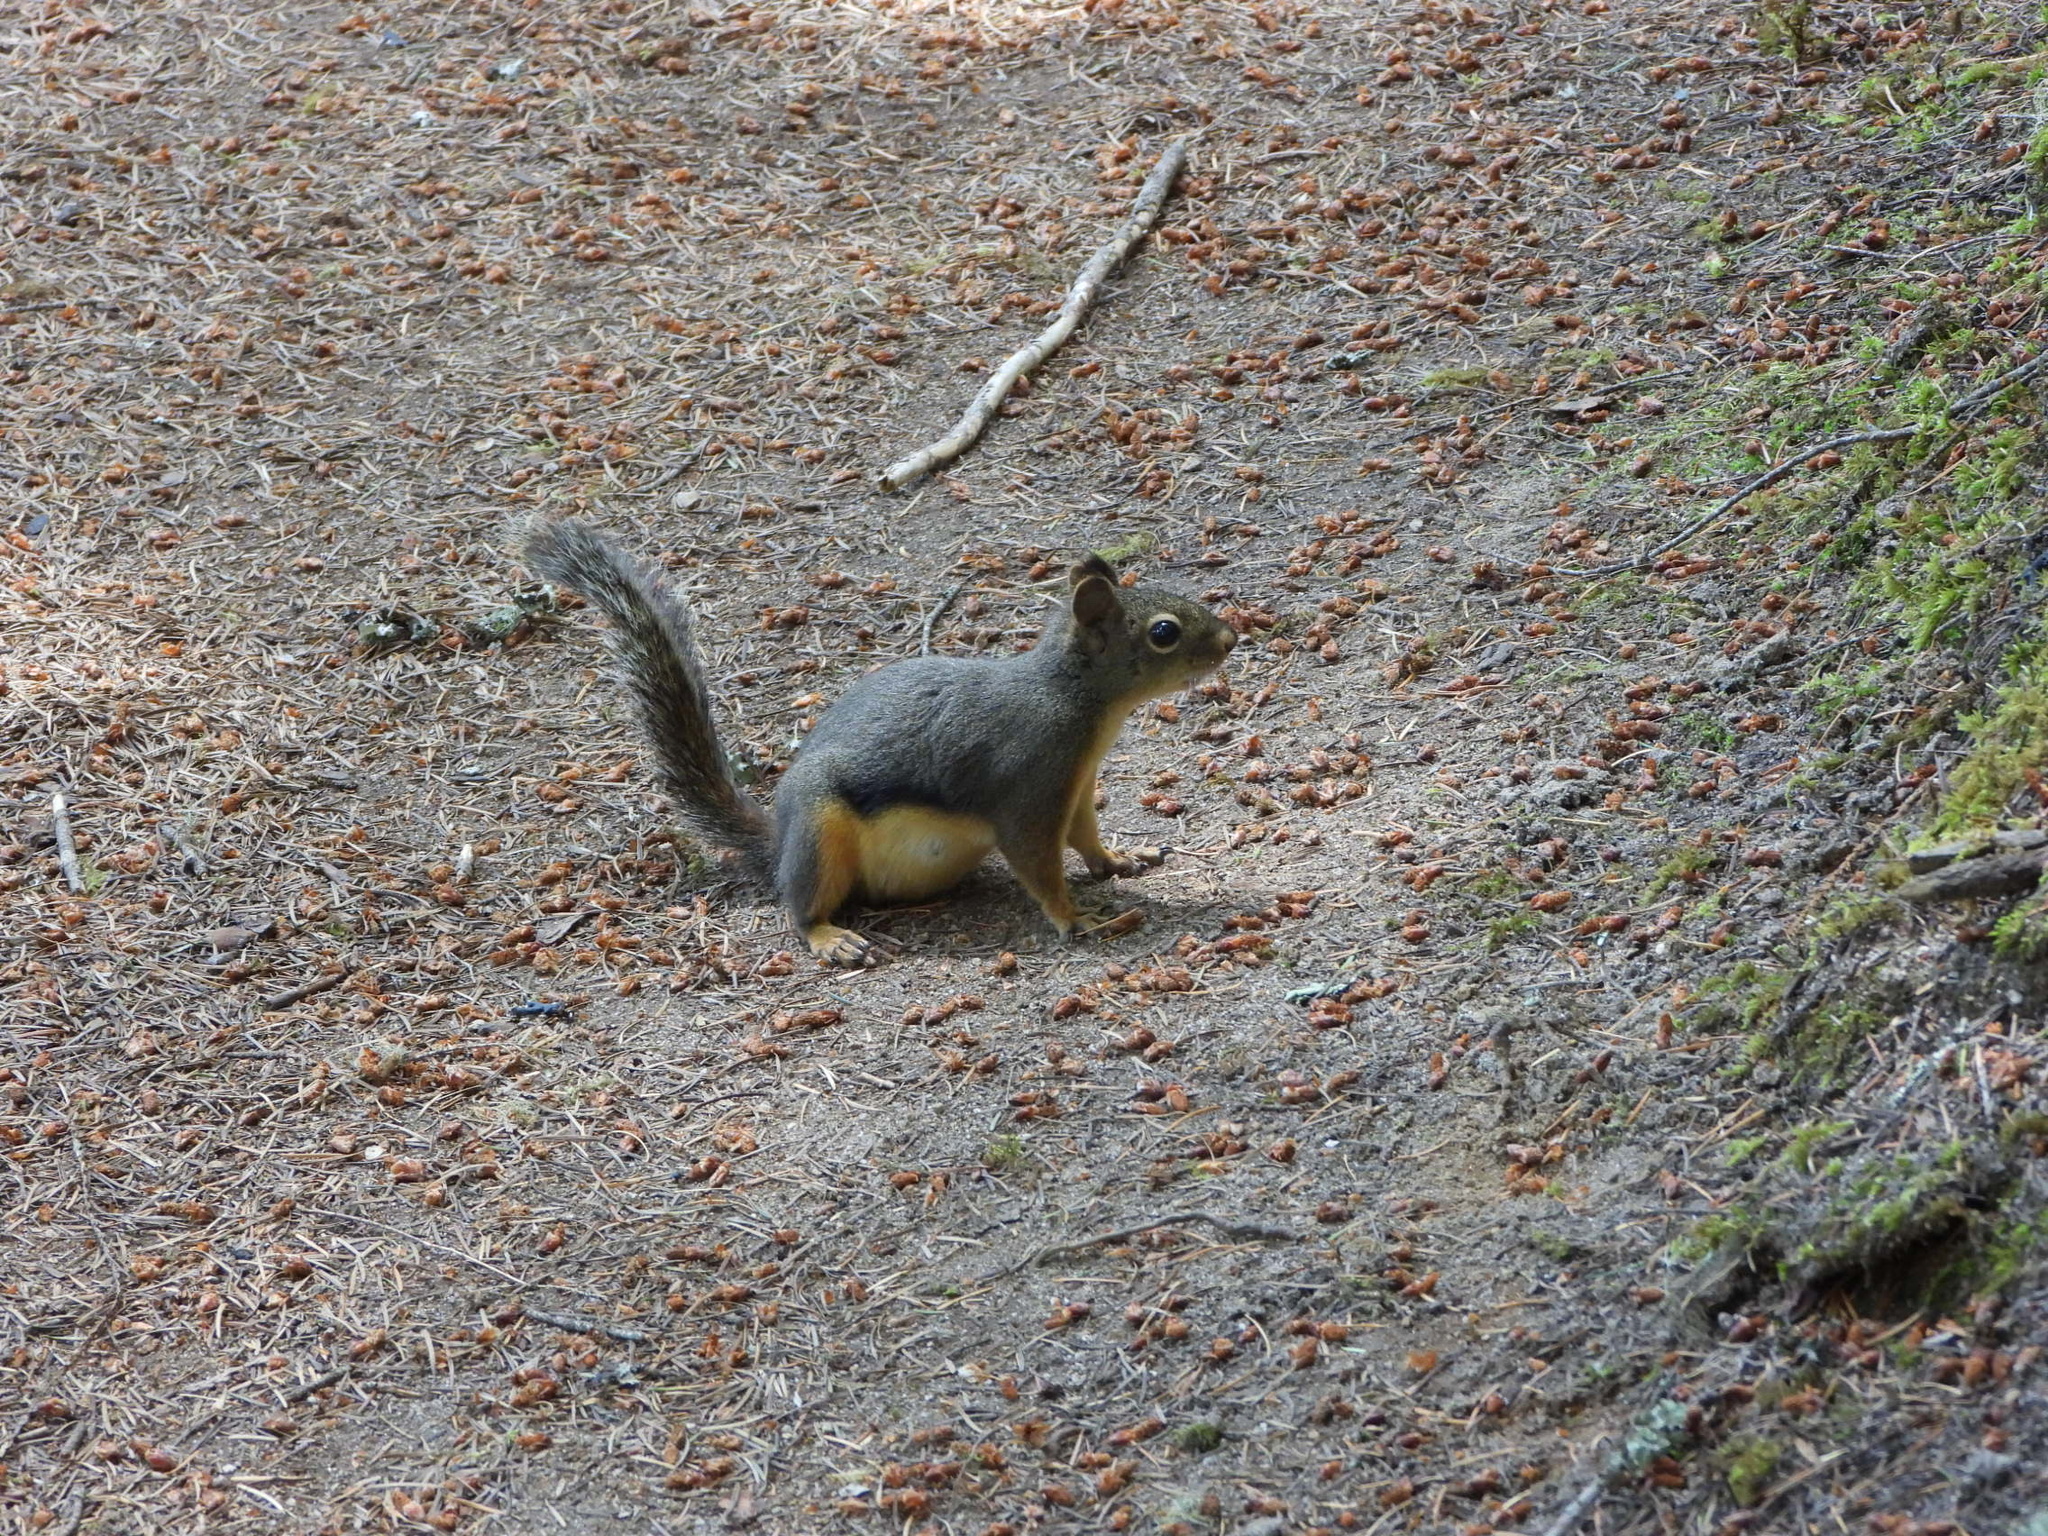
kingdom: Animalia
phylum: Chordata
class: Mammalia
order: Rodentia
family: Sciuridae
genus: Tamiasciurus
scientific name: Tamiasciurus douglasii
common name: Douglas's squirrel
